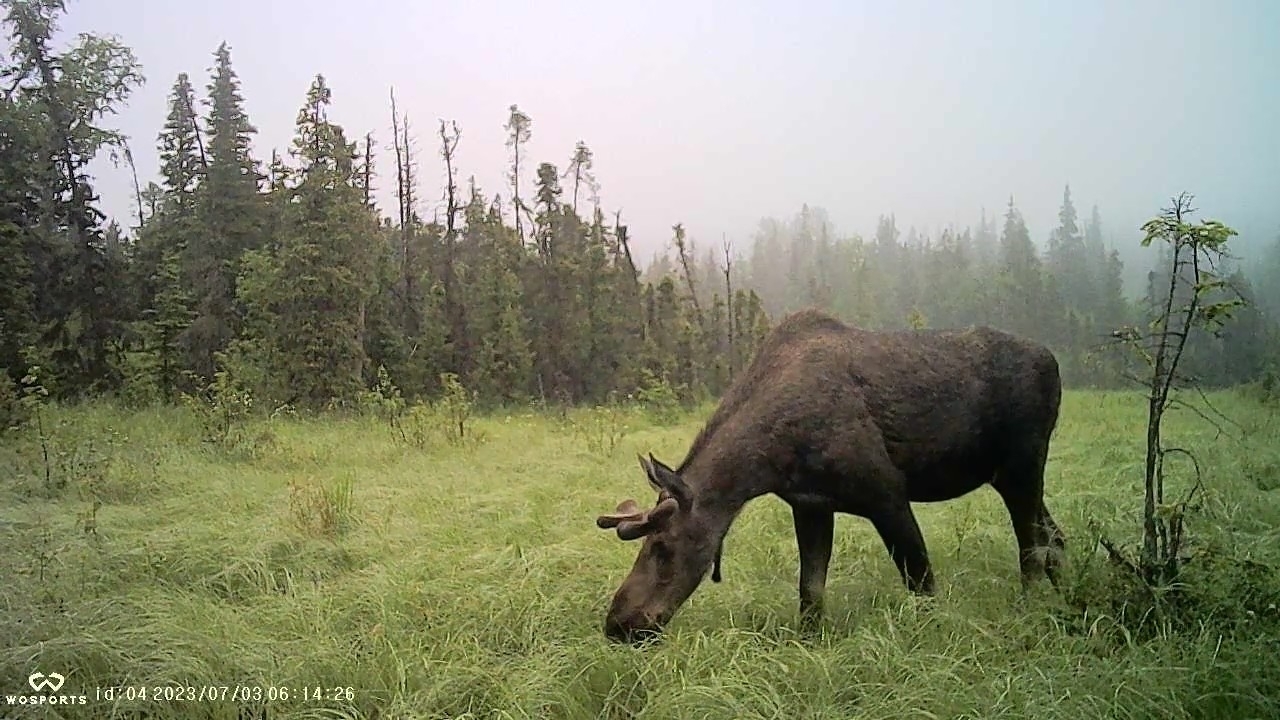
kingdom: Animalia
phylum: Chordata
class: Mammalia
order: Artiodactyla
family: Cervidae
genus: Alces
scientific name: Alces alces
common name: Moose
